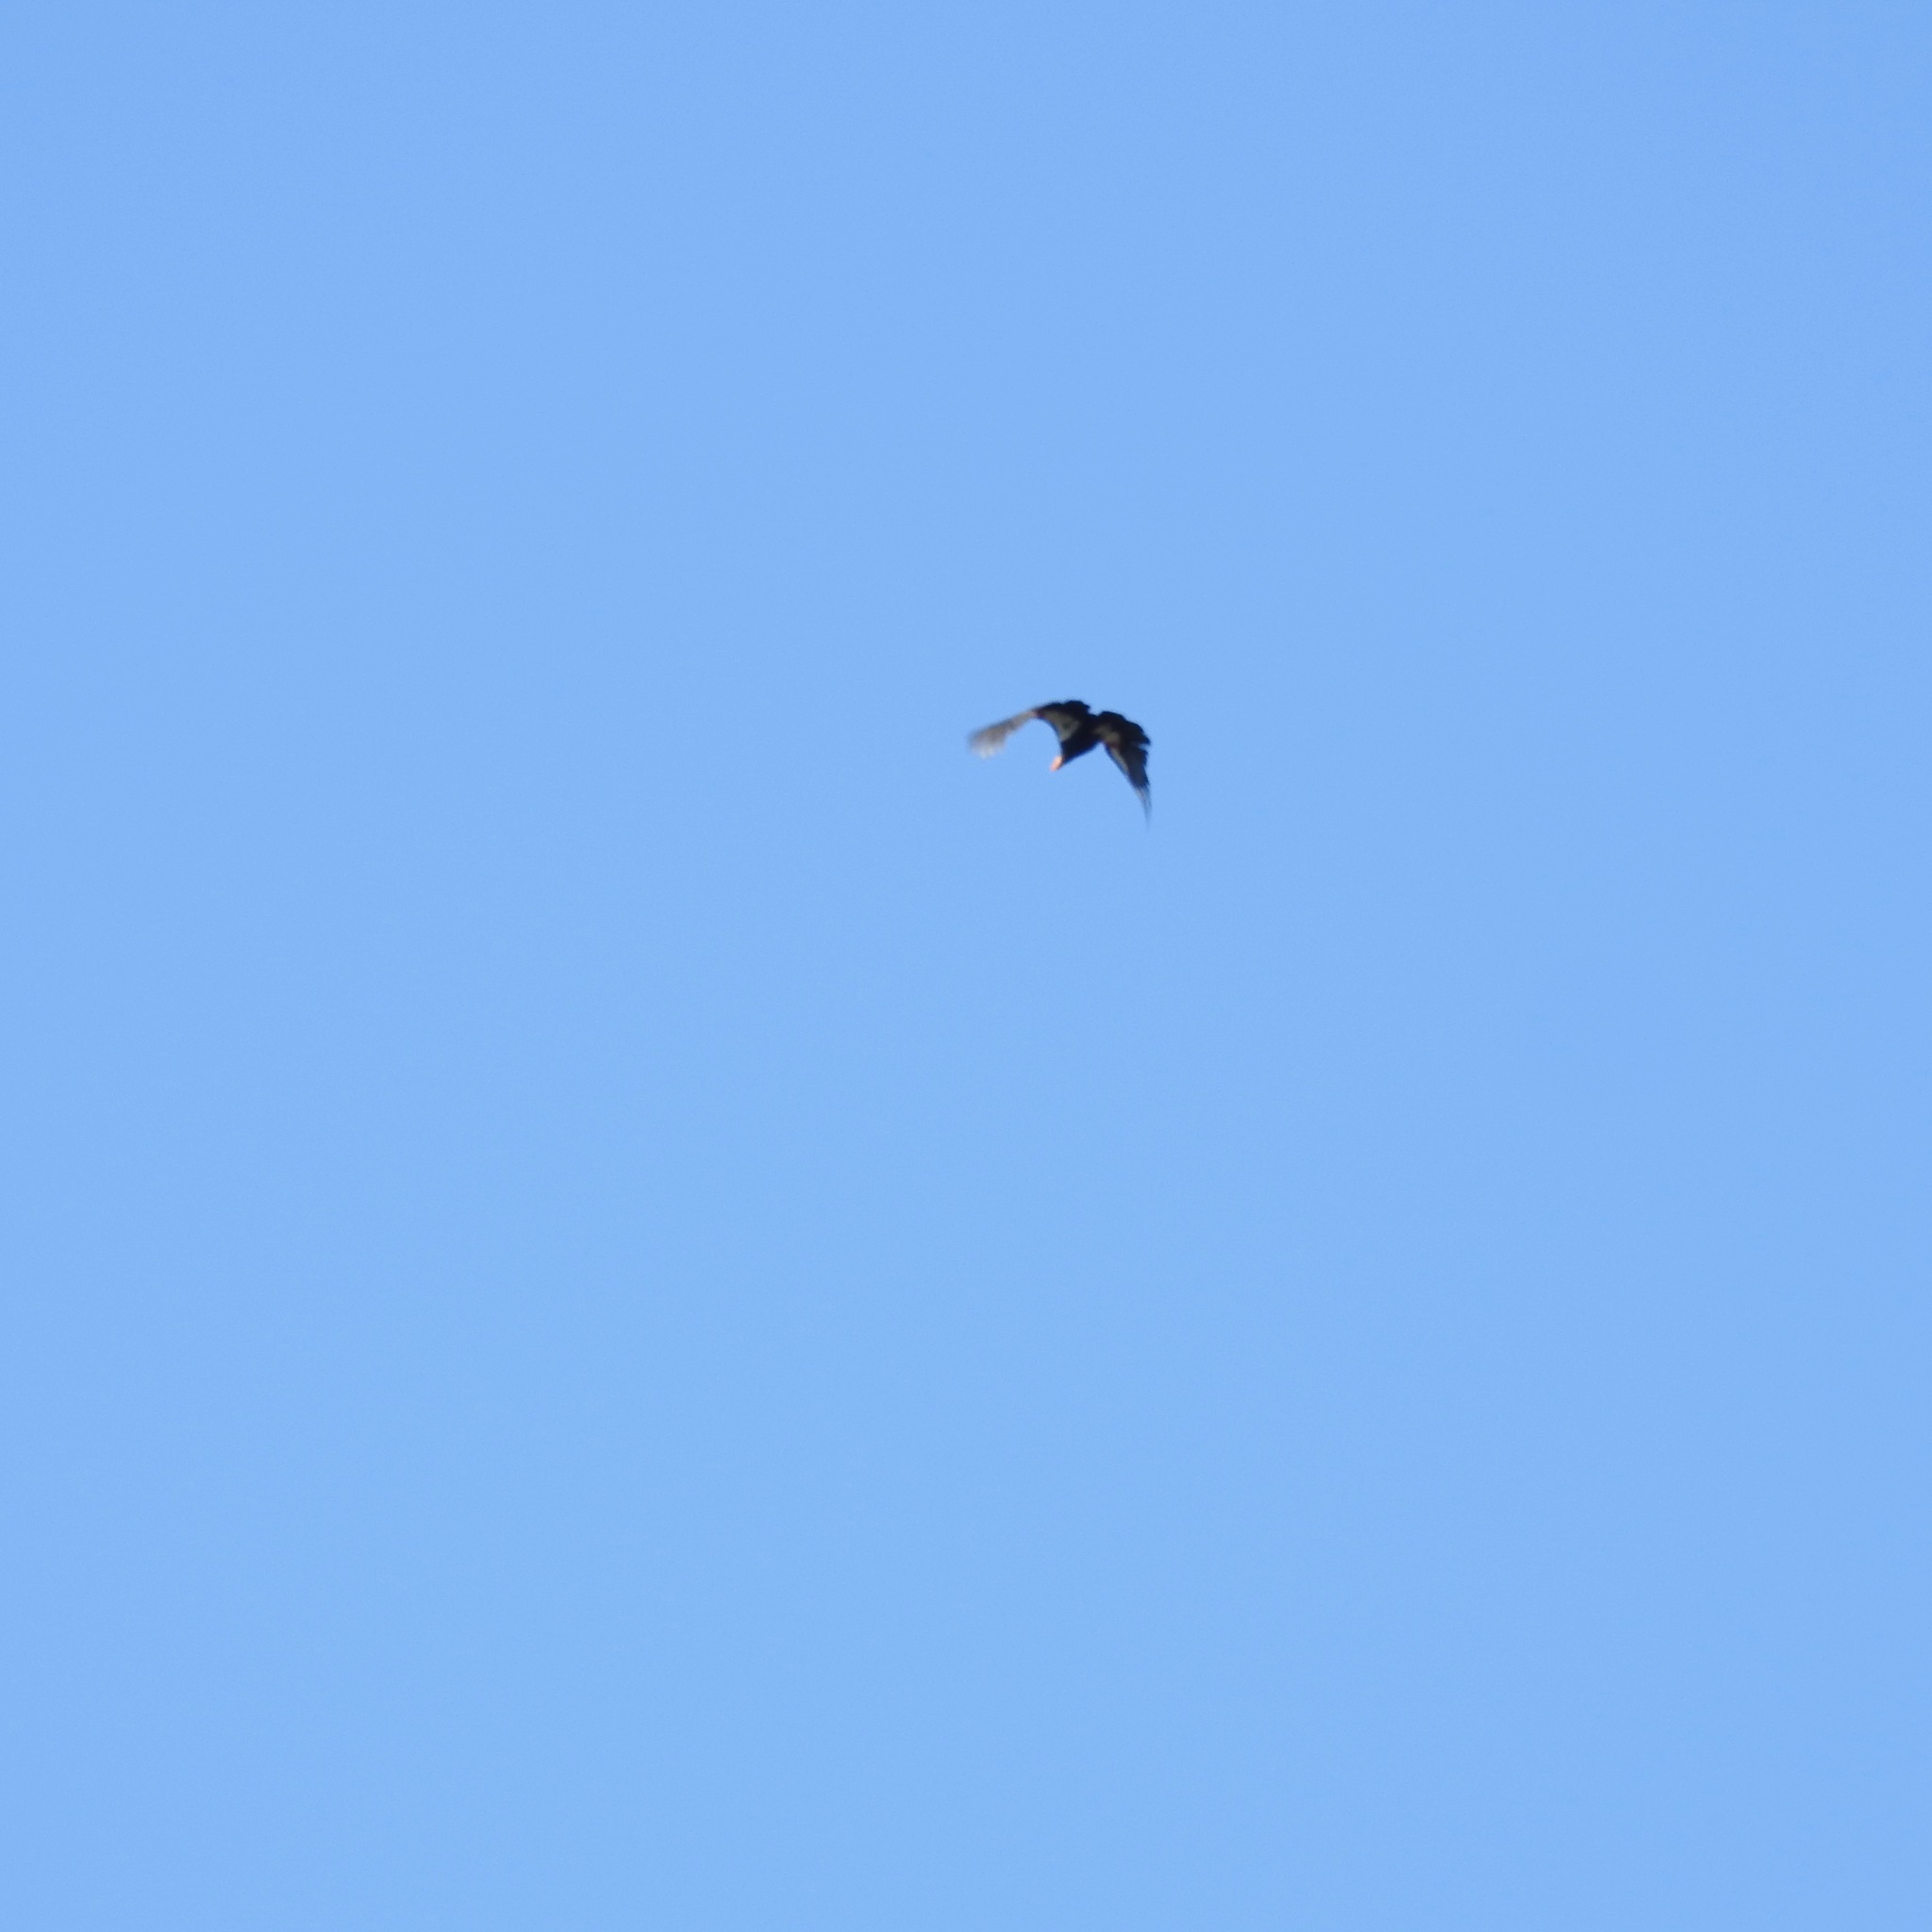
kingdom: Animalia
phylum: Chordata
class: Aves
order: Accipitriformes
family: Cathartidae
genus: Gymnogyps
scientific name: Gymnogyps californianus
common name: California condor
